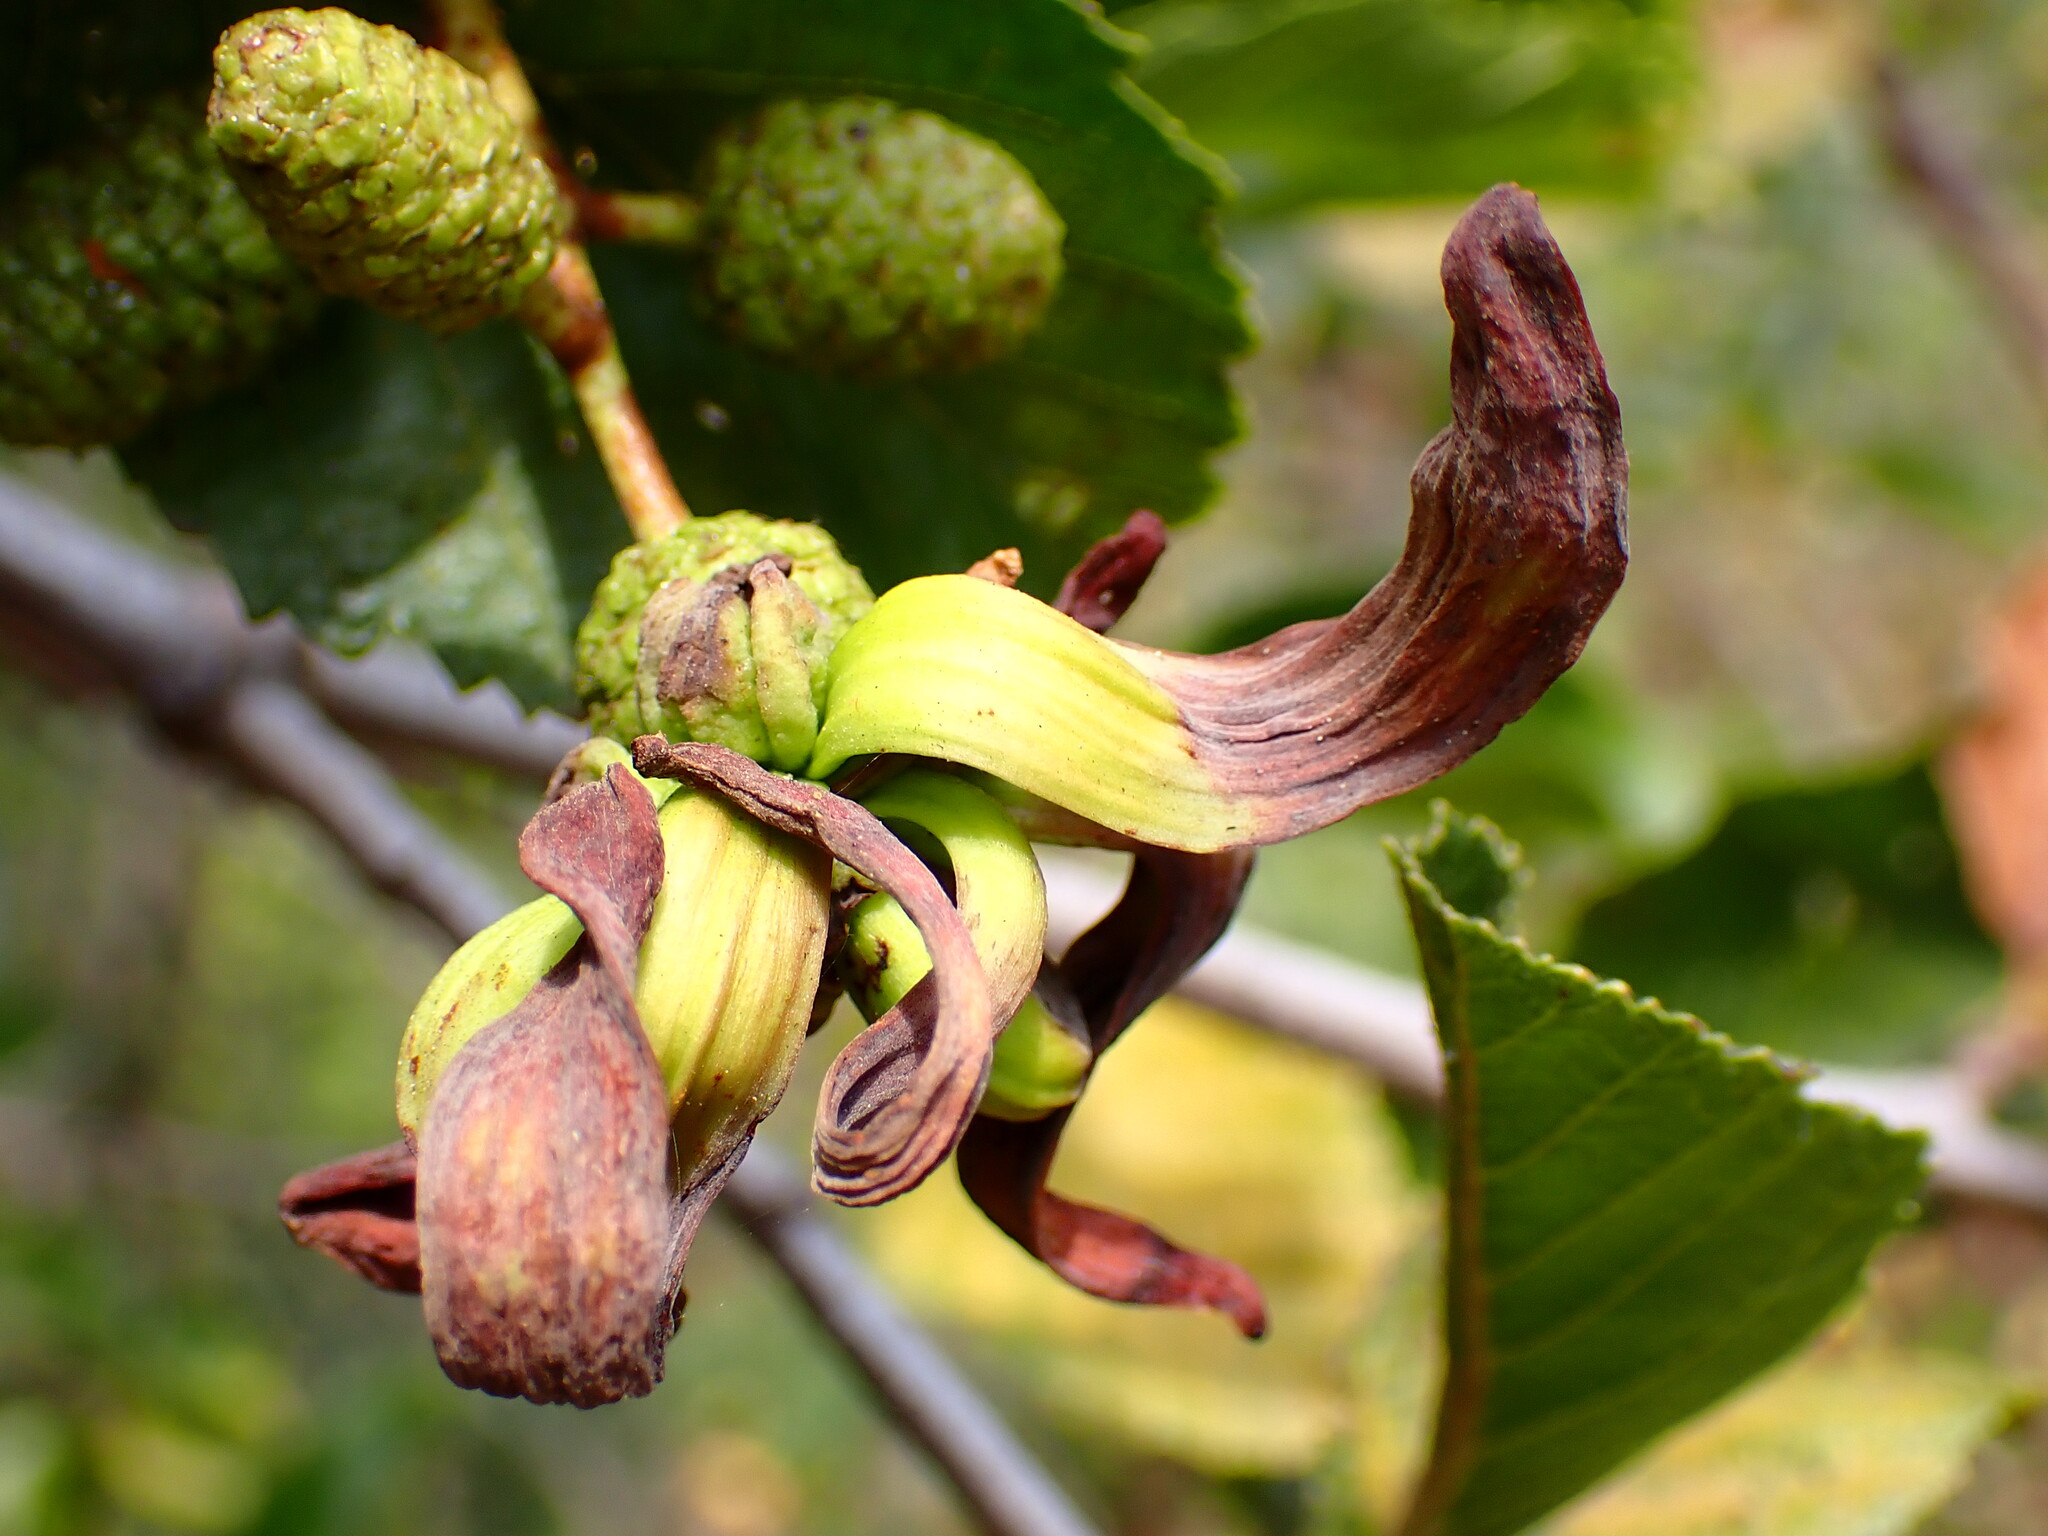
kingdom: Fungi
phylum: Ascomycota
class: Taphrinomycetes
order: Taphrinales
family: Taphrinaceae
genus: Taphrina
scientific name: Taphrina occidentalis
